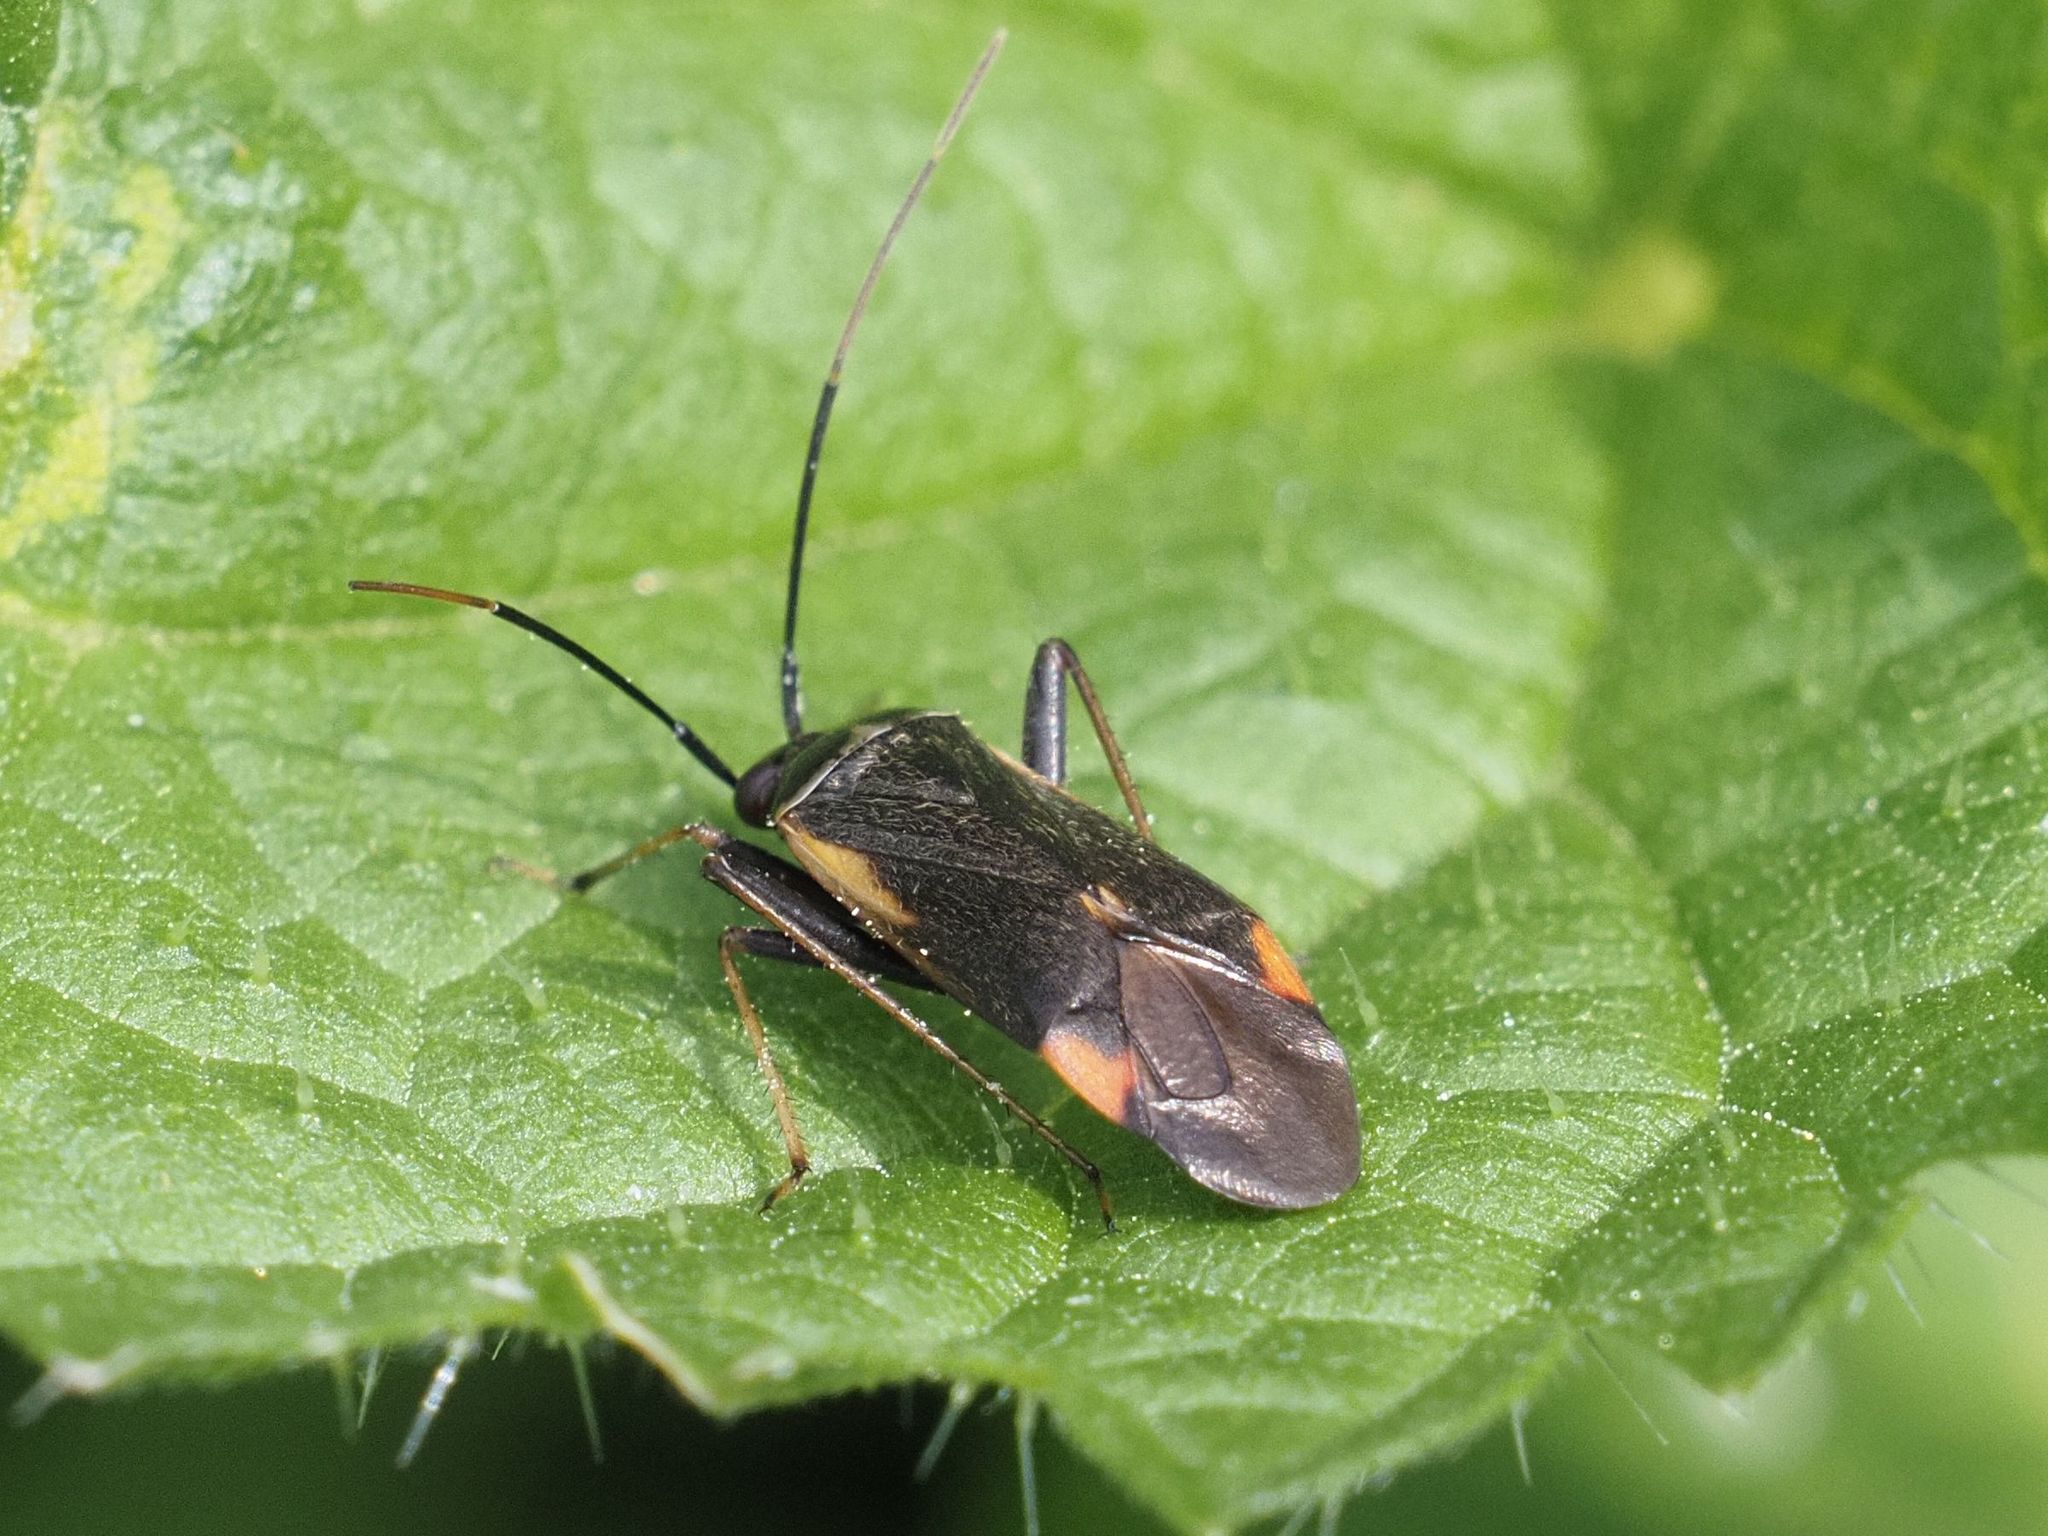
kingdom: Animalia
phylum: Arthropoda
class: Insecta
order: Hemiptera
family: Miridae
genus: Adelphocoris
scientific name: Adelphocoris seticornis
